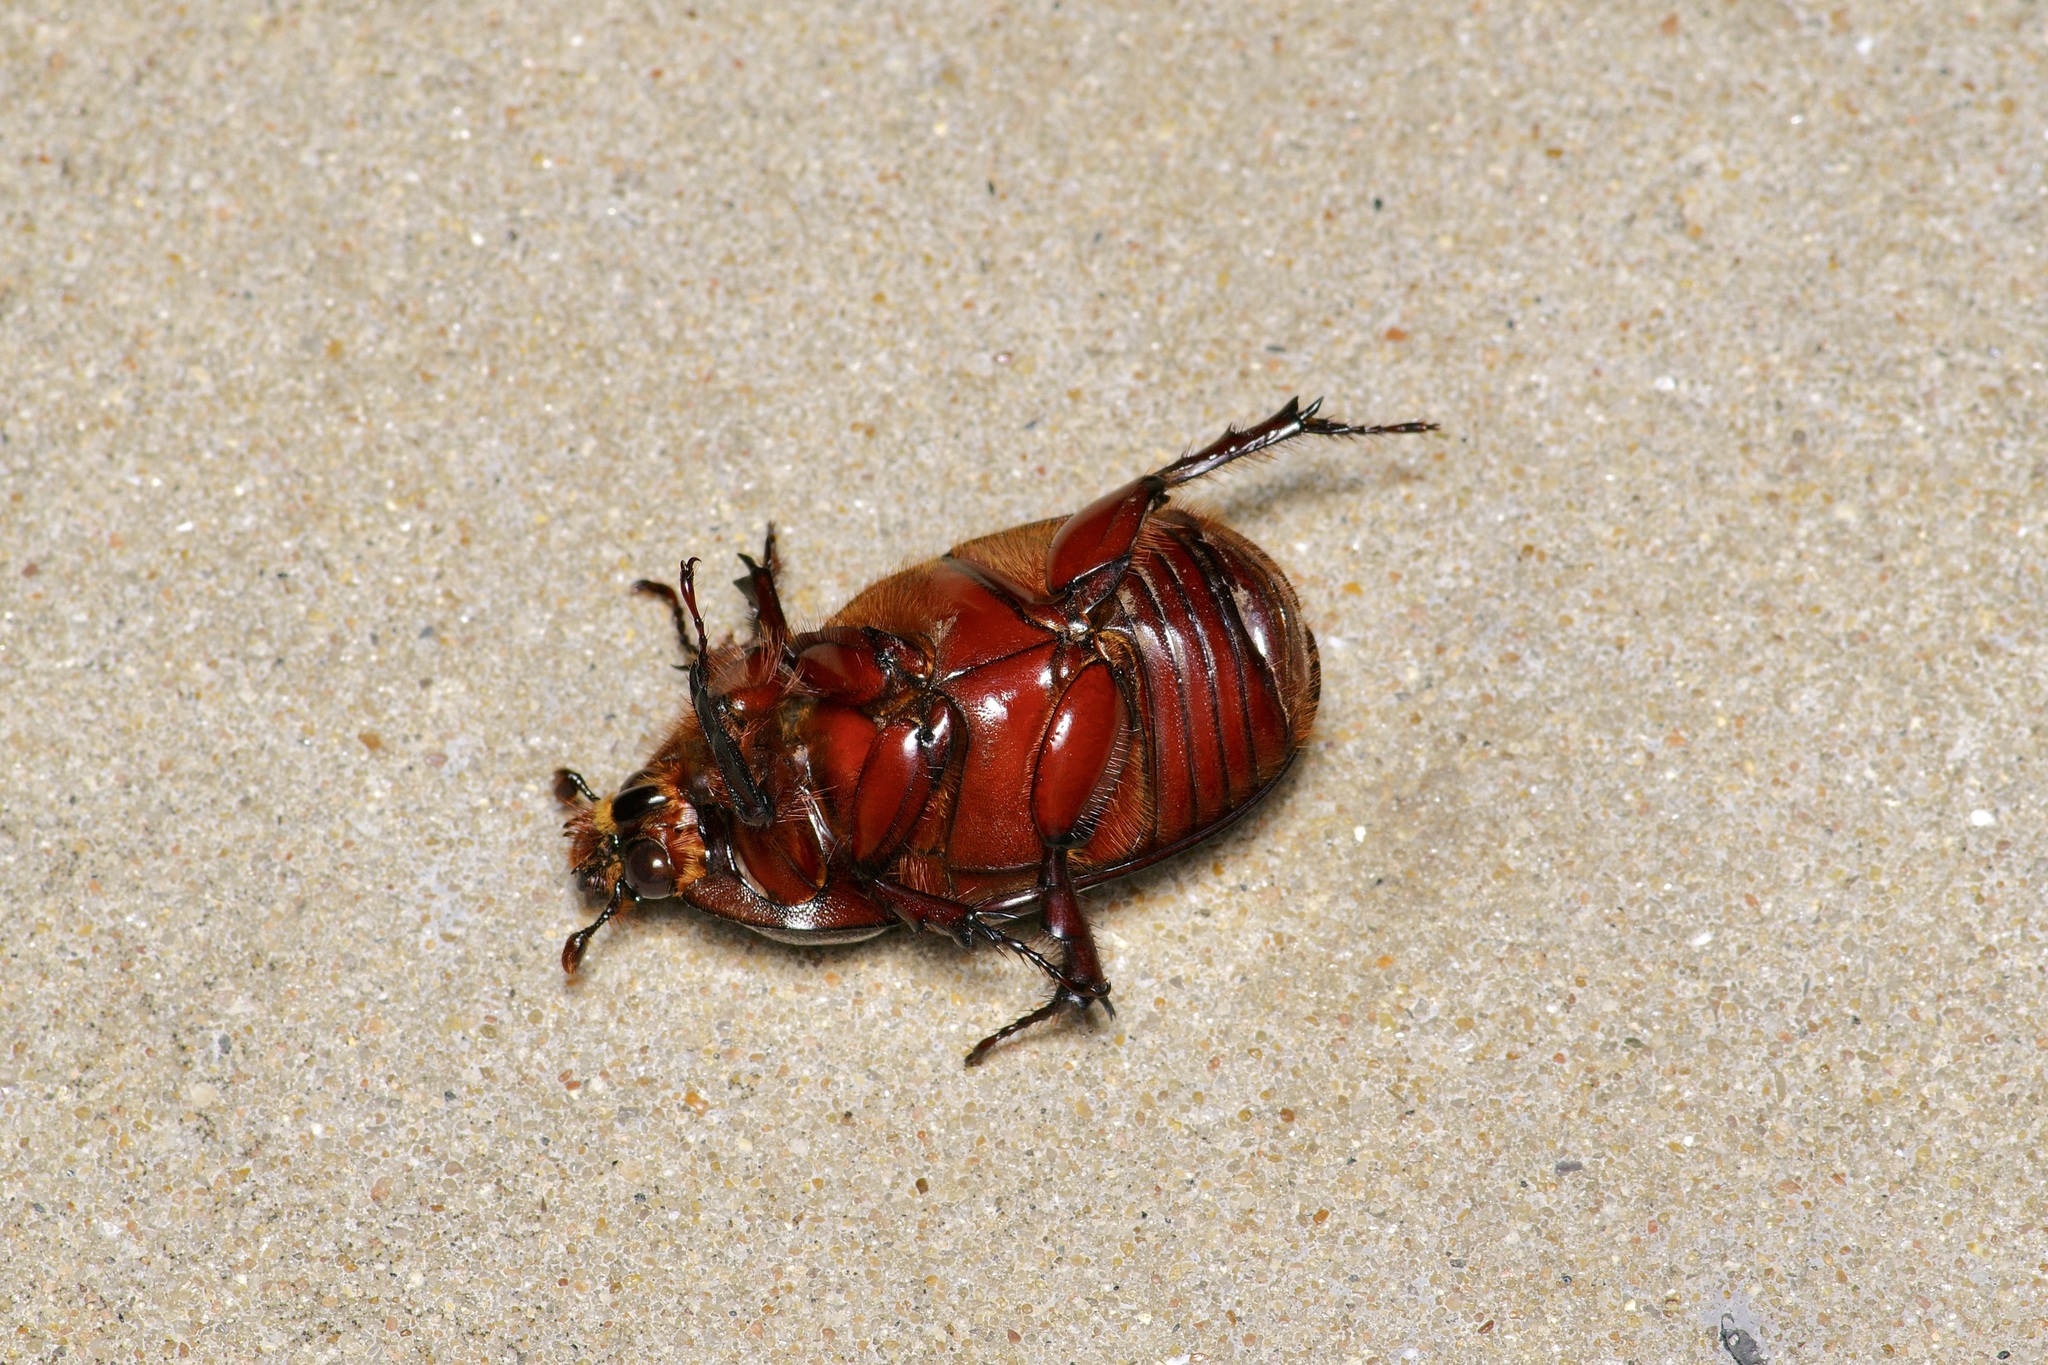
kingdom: Animalia
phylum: Arthropoda
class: Insecta
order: Coleoptera
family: Scarabaeidae
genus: Strategus
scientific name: Strategus aloeus
